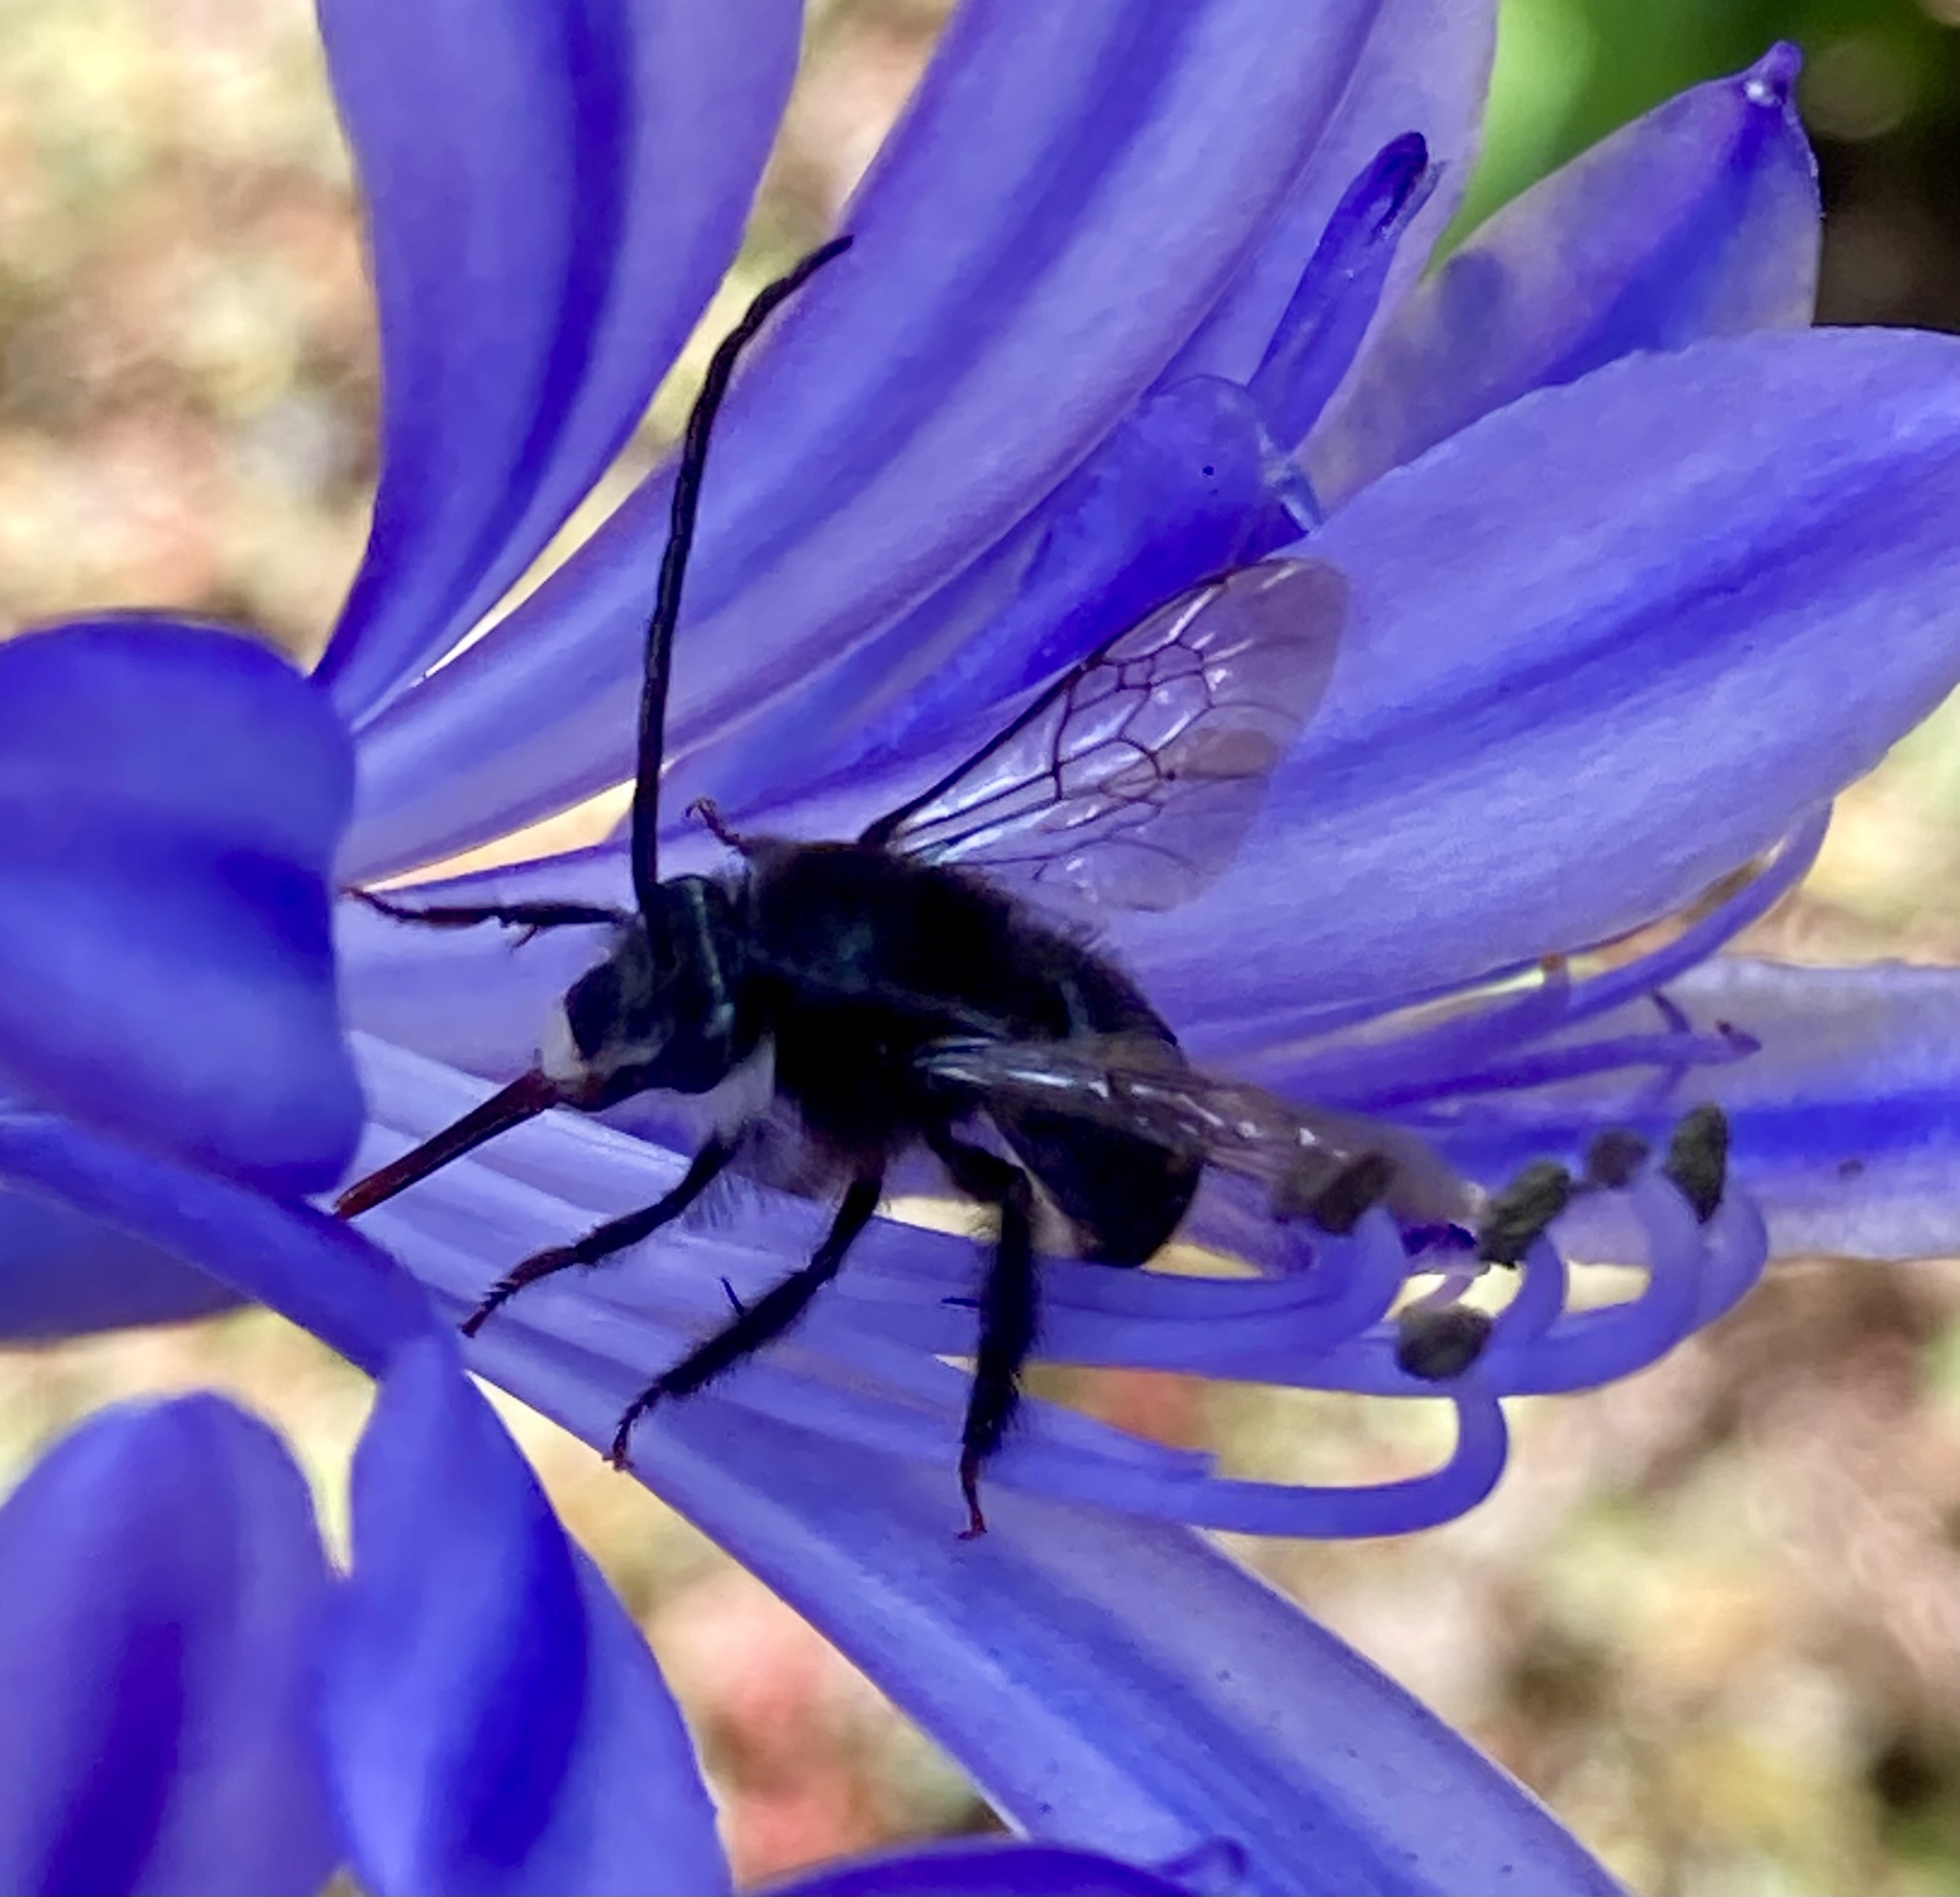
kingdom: Animalia
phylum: Arthropoda
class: Insecta
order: Hymenoptera
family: Apidae
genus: Thygater
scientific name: Thygater aethiops
